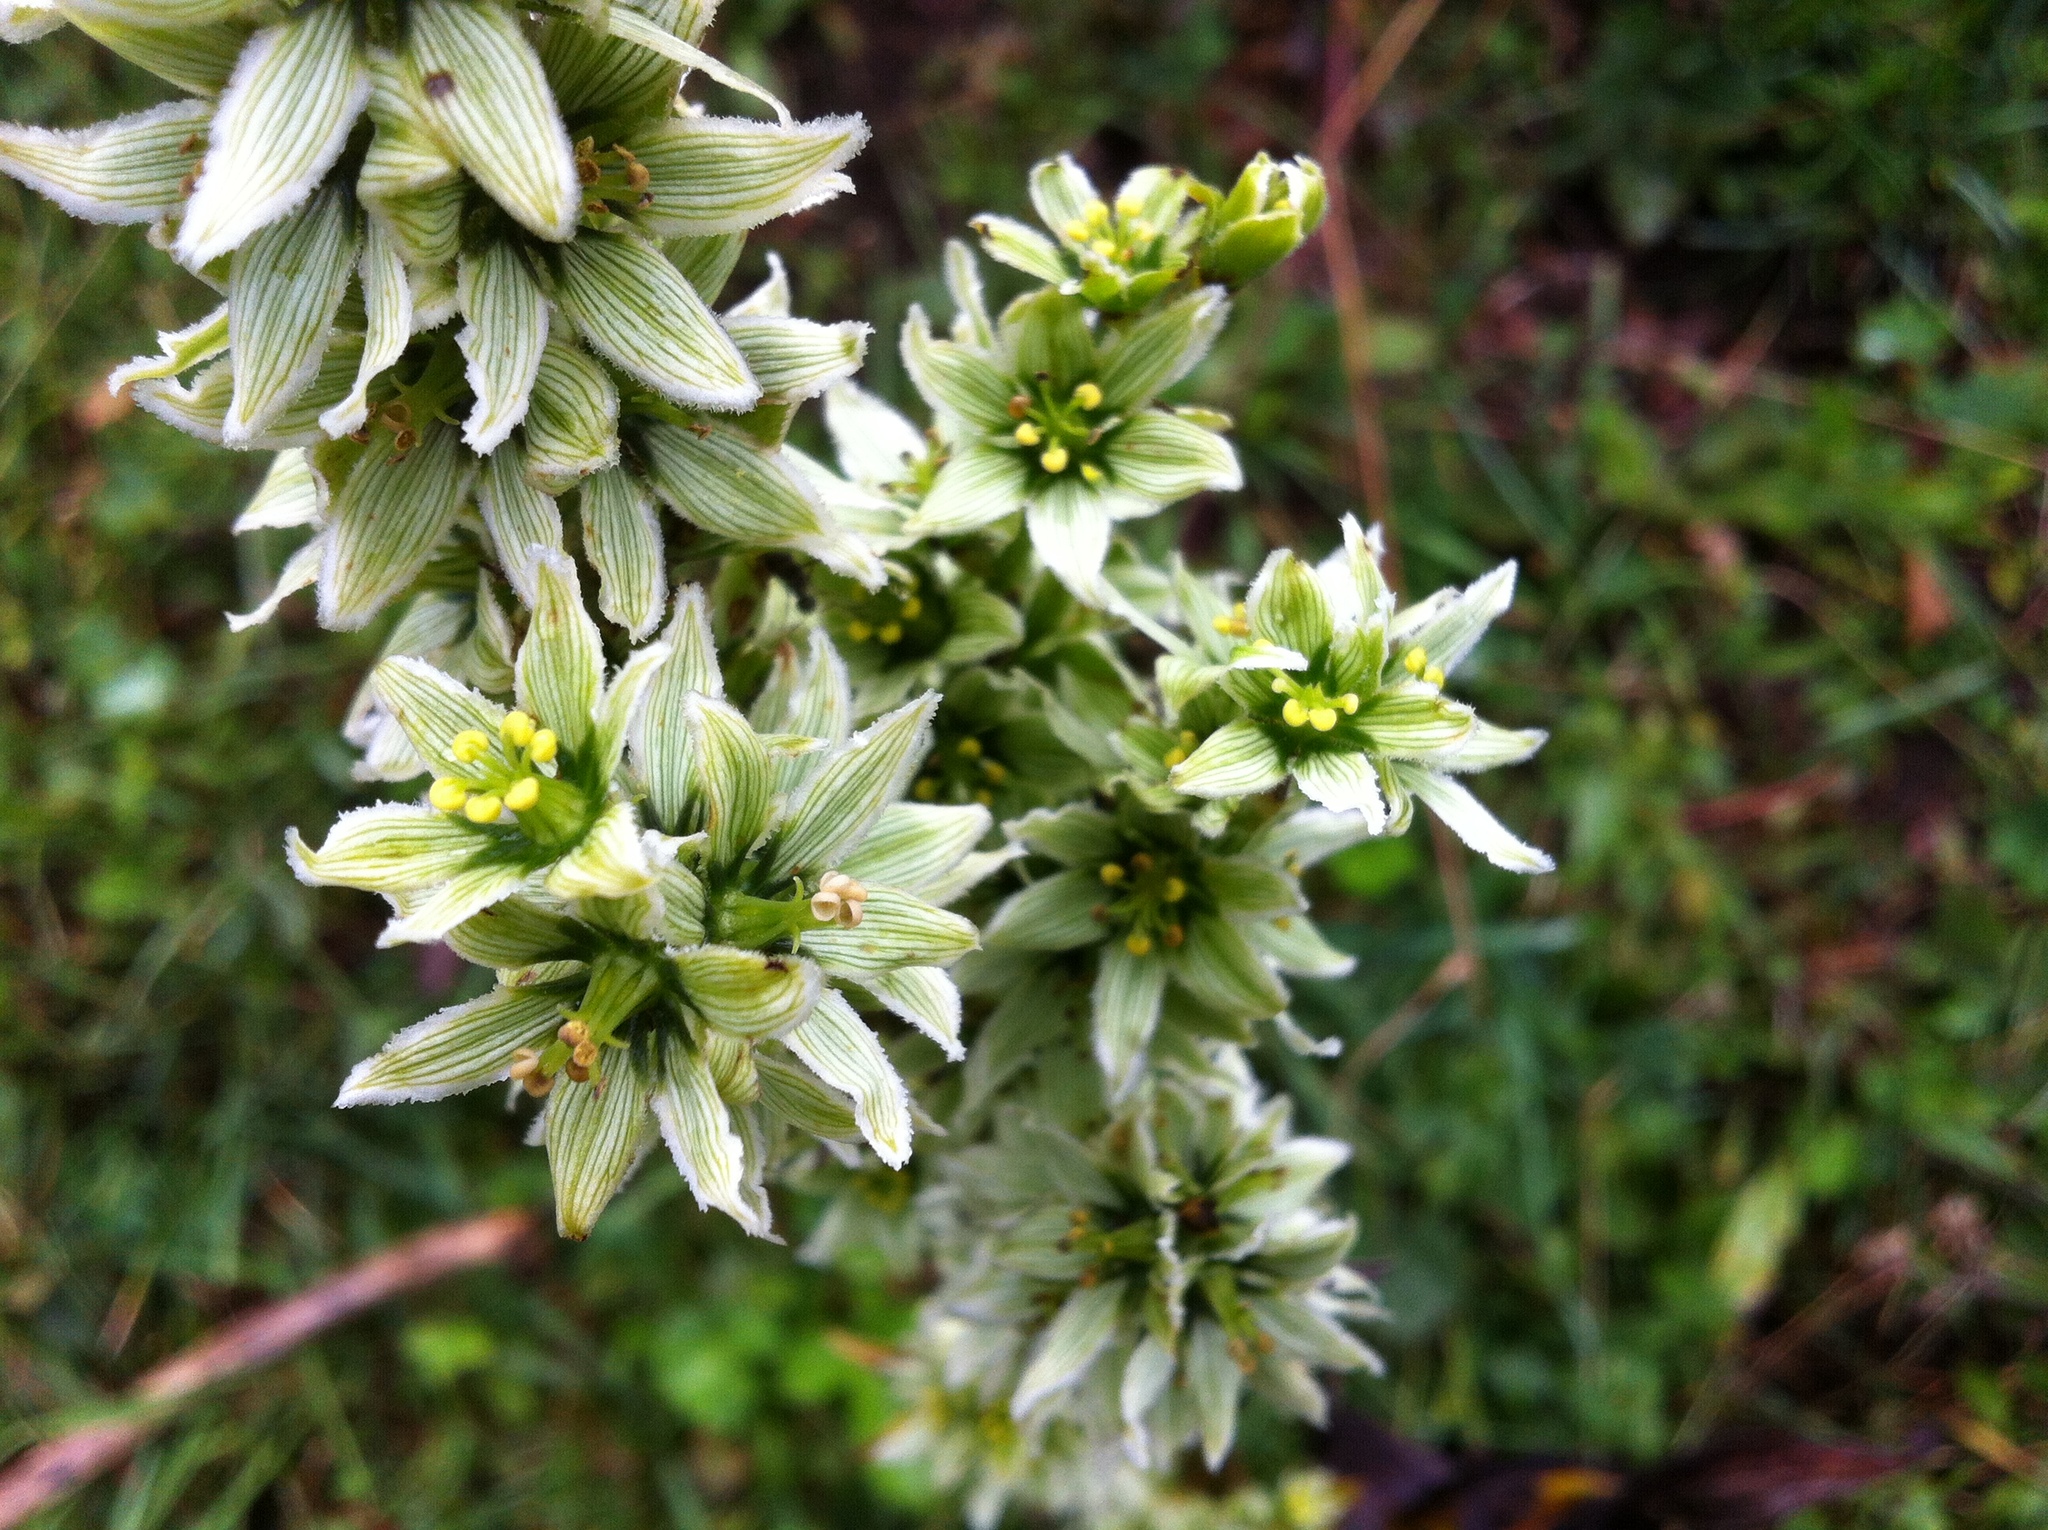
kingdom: Plantae
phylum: Tracheophyta
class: Liliopsida
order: Liliales
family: Melanthiaceae
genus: Veratrum
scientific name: Veratrum album
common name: White veratrum
